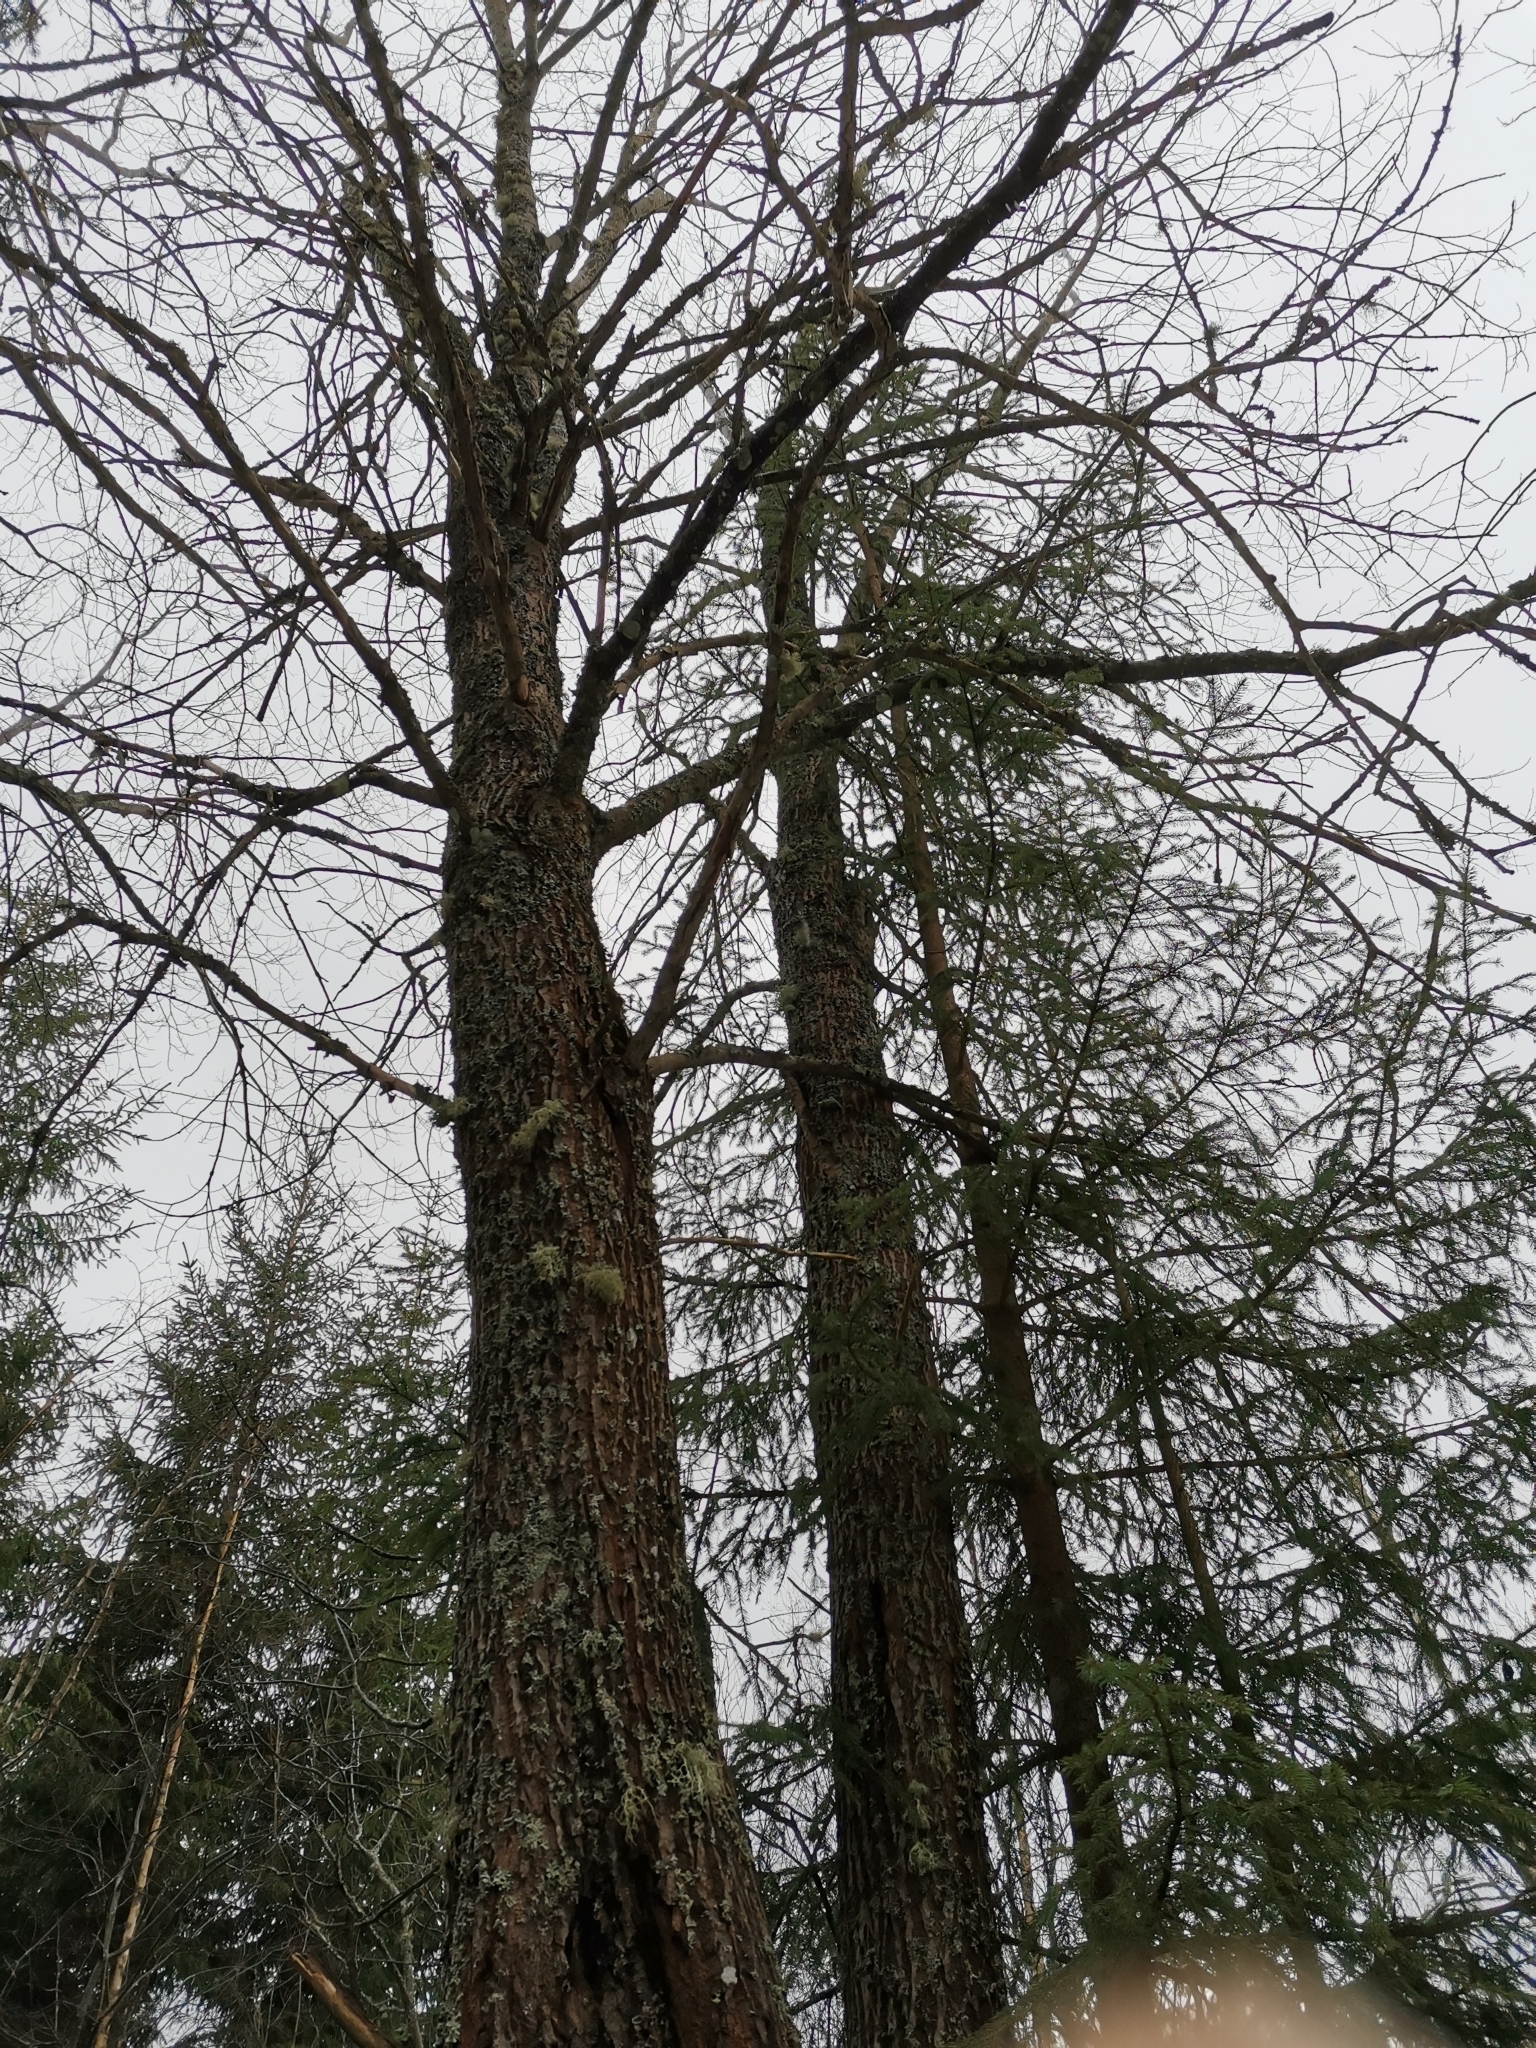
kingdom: Animalia
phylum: Chordata
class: Mammalia
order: Rodentia
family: Sciuridae
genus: Pteromys
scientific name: Pteromys volans
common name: Siberian flying squirrel
